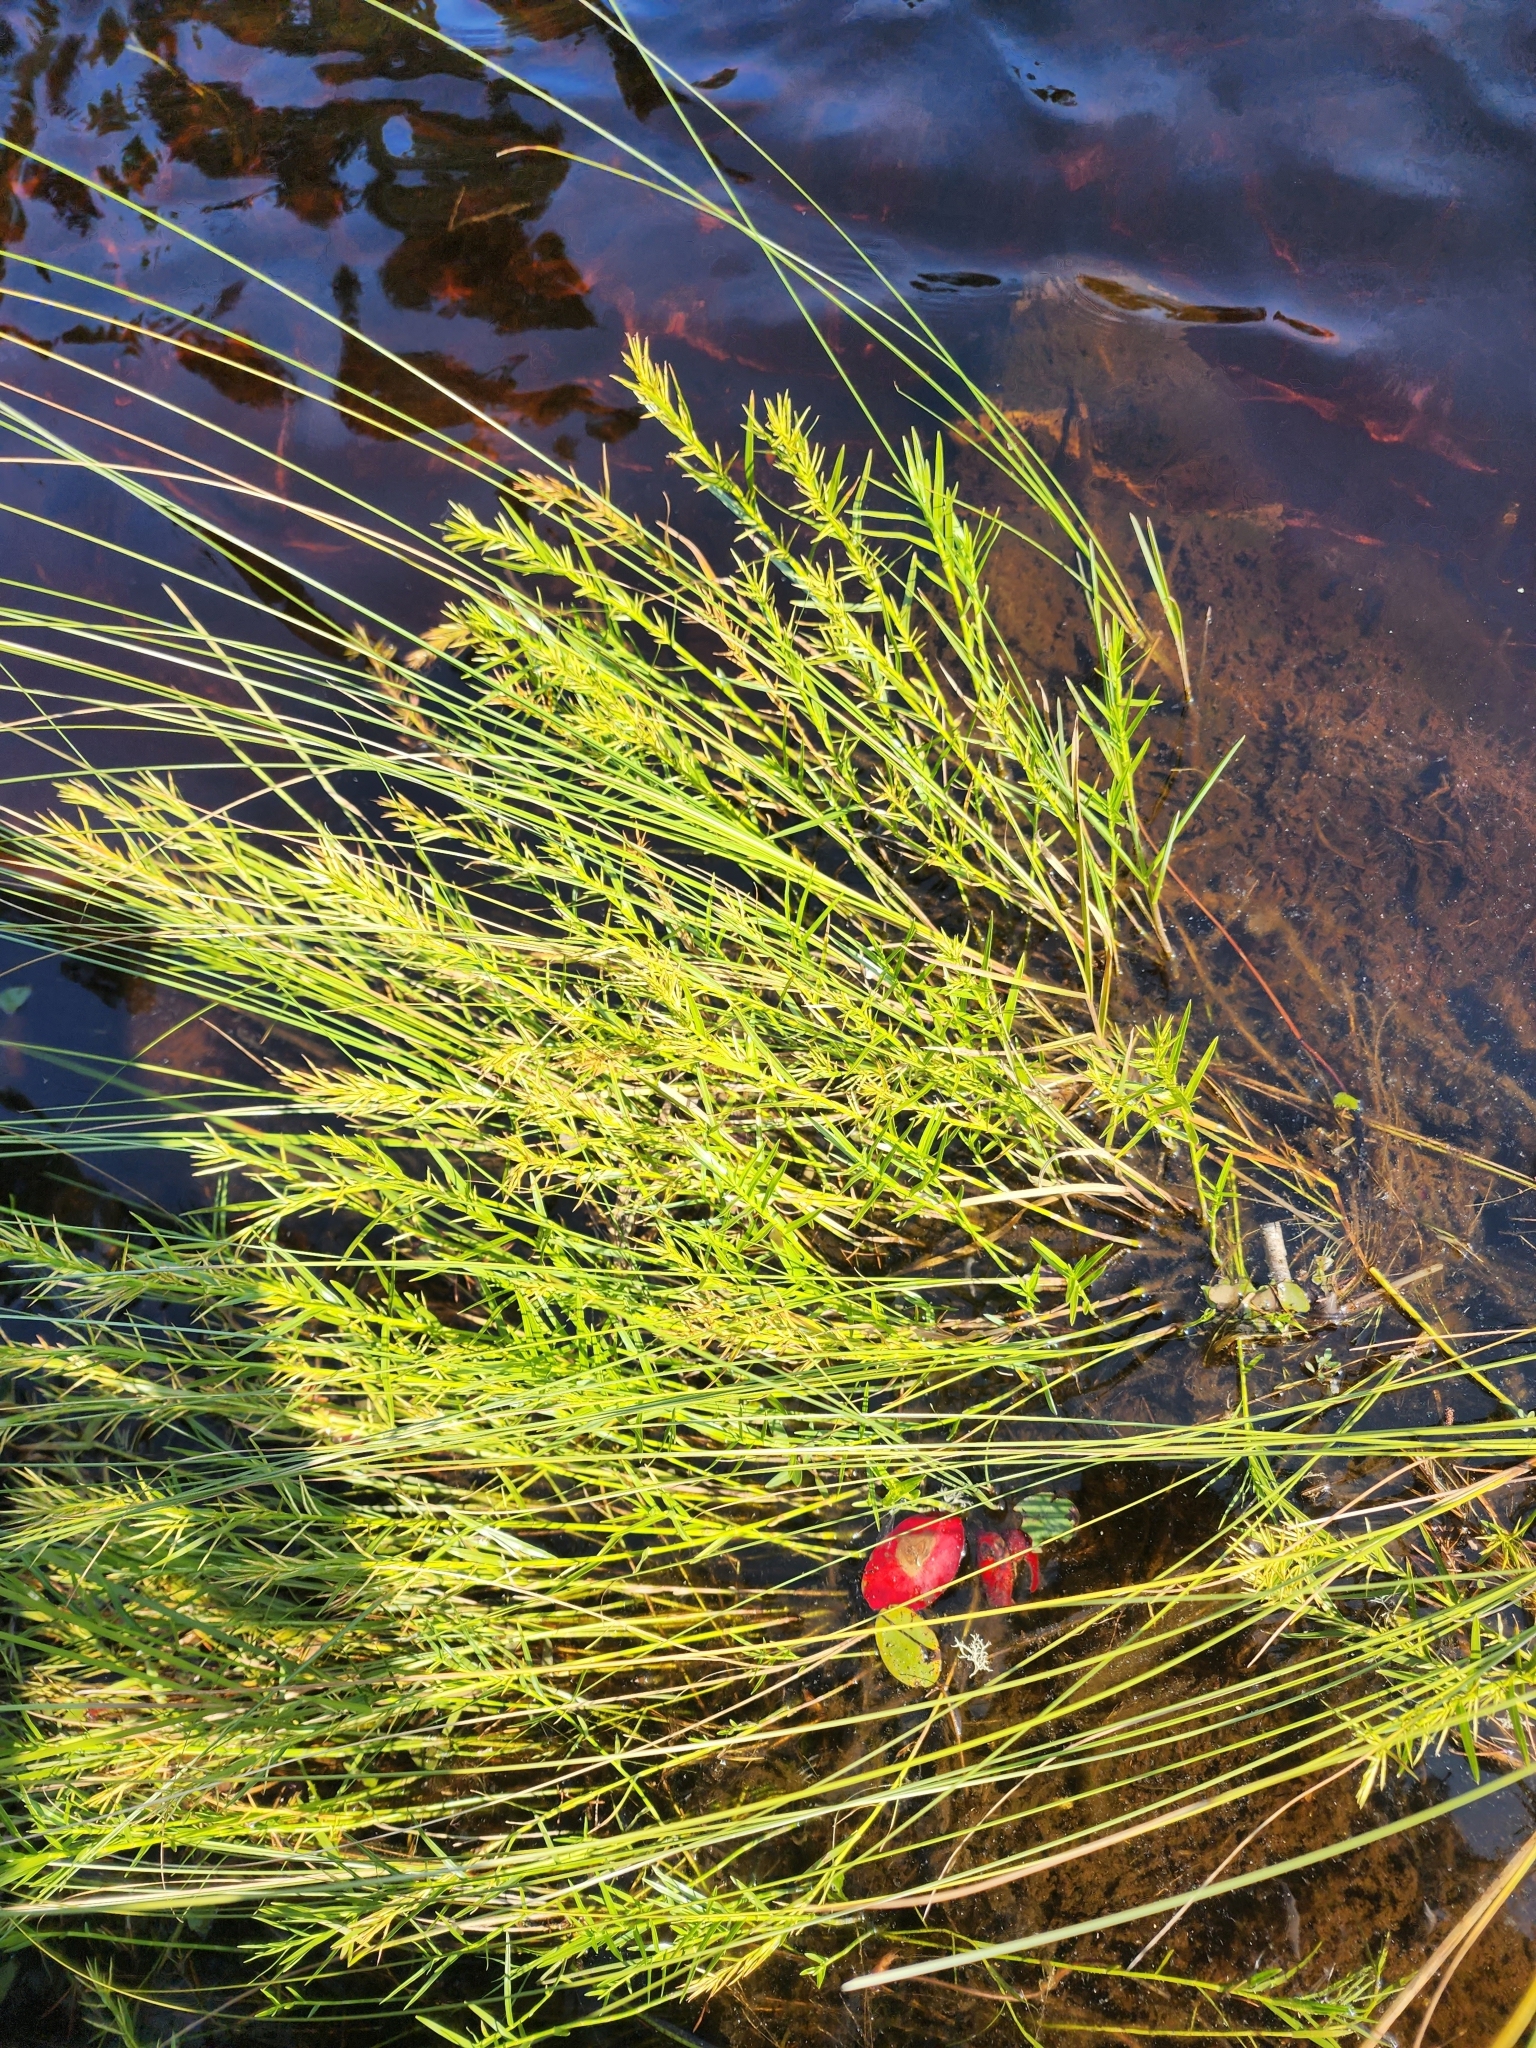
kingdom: Plantae
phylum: Tracheophyta
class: Liliopsida
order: Poales
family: Cyperaceae
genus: Dulichium
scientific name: Dulichium arundinaceum
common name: Three-way sedge
